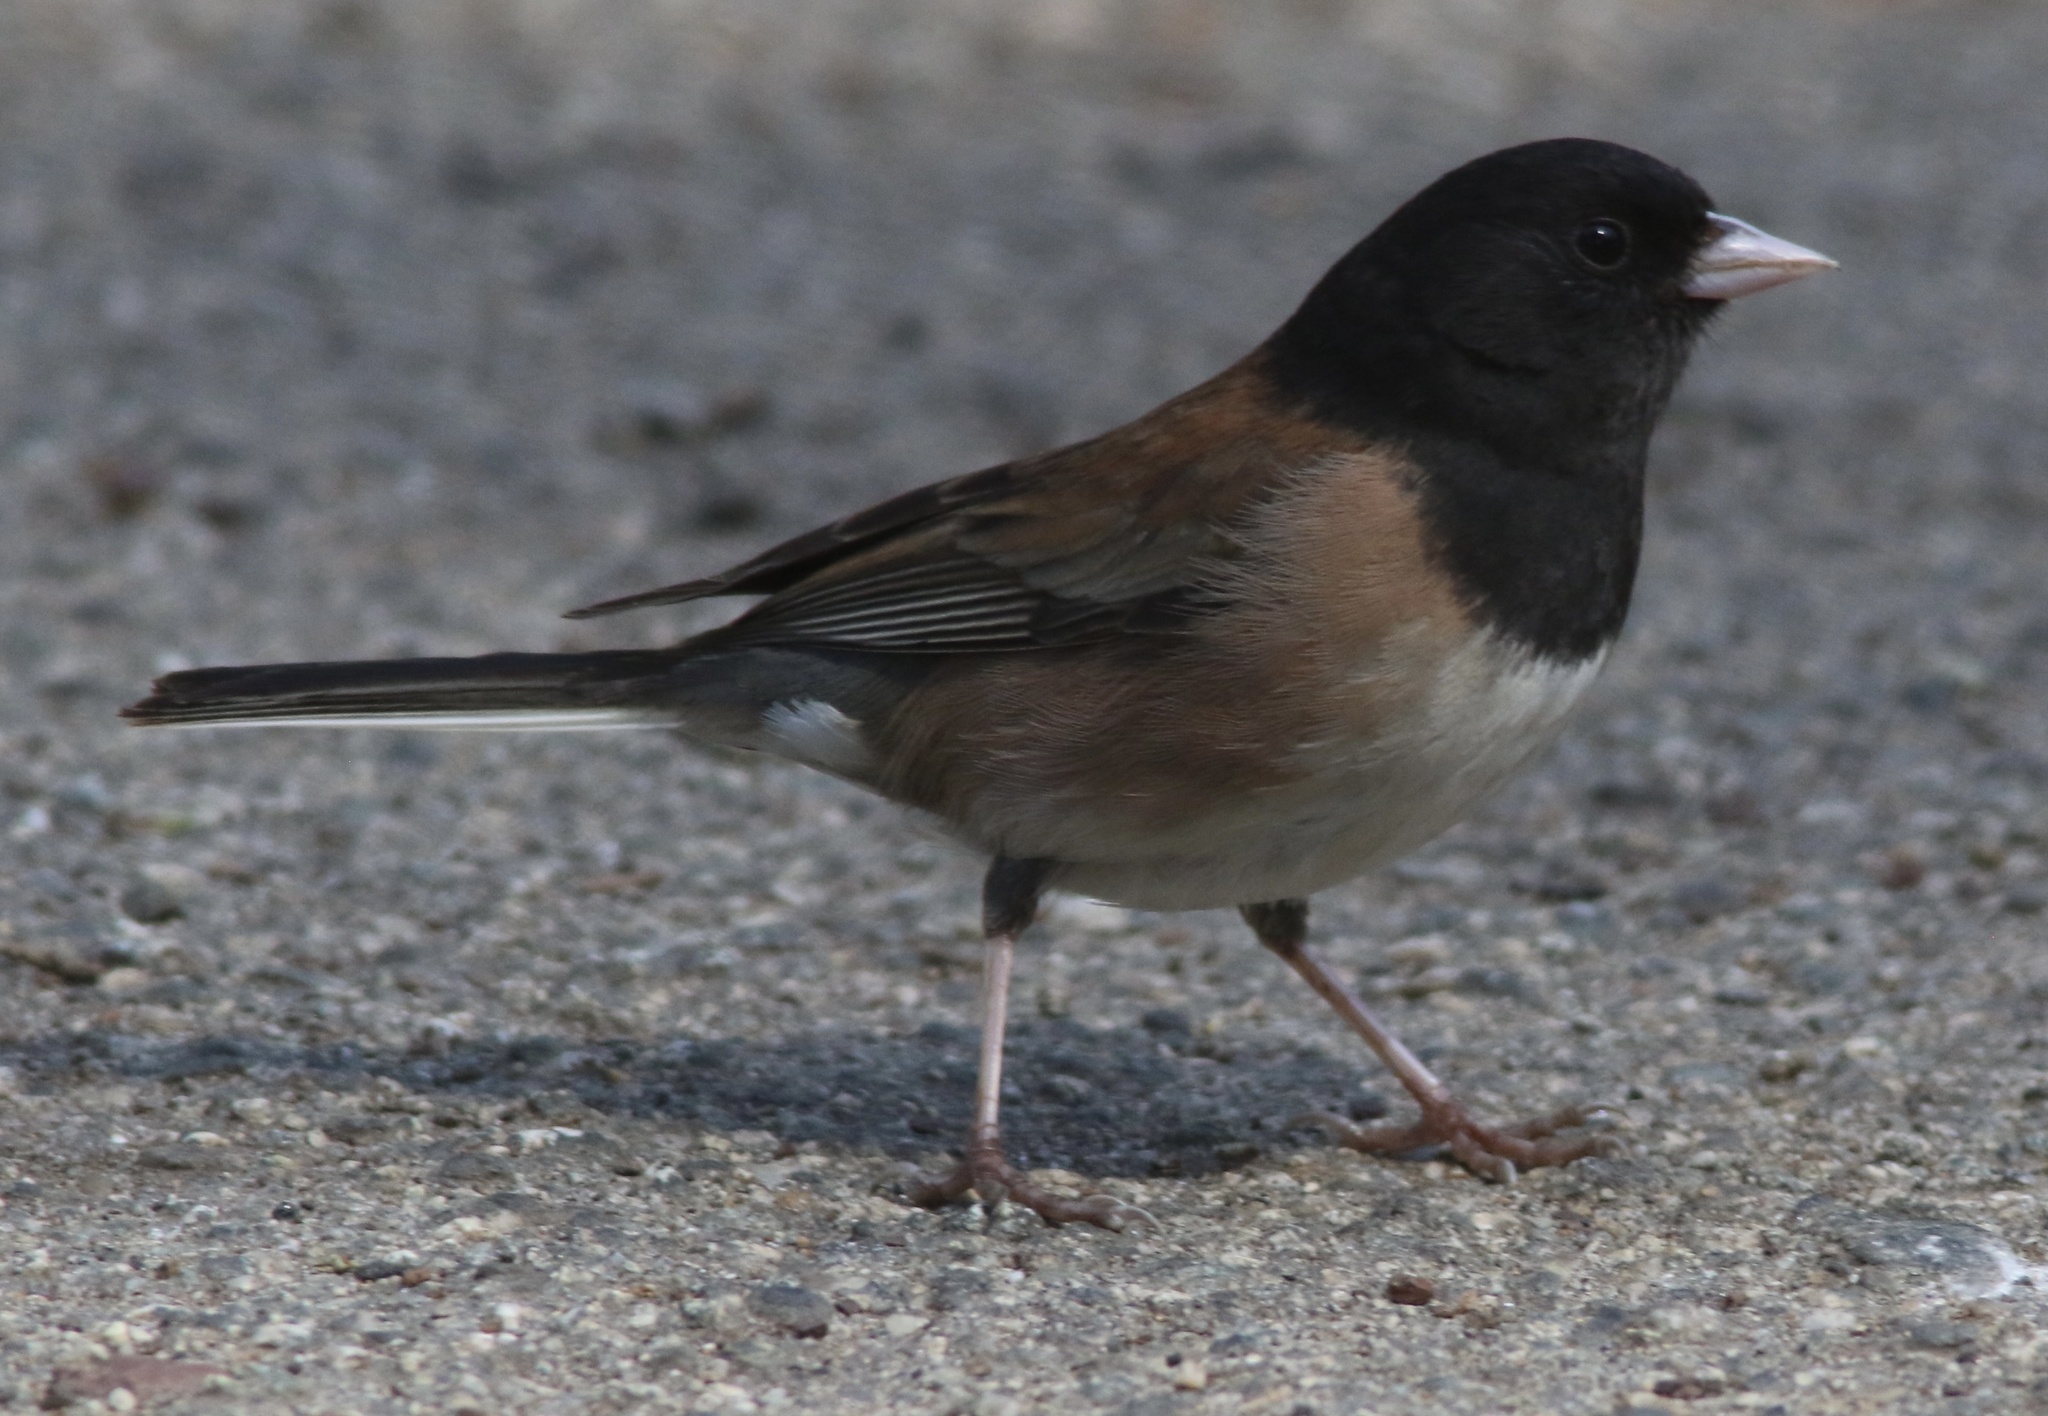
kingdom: Animalia
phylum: Chordata
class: Aves
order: Passeriformes
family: Passerellidae
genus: Junco
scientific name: Junco hyemalis
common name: Dark-eyed junco
